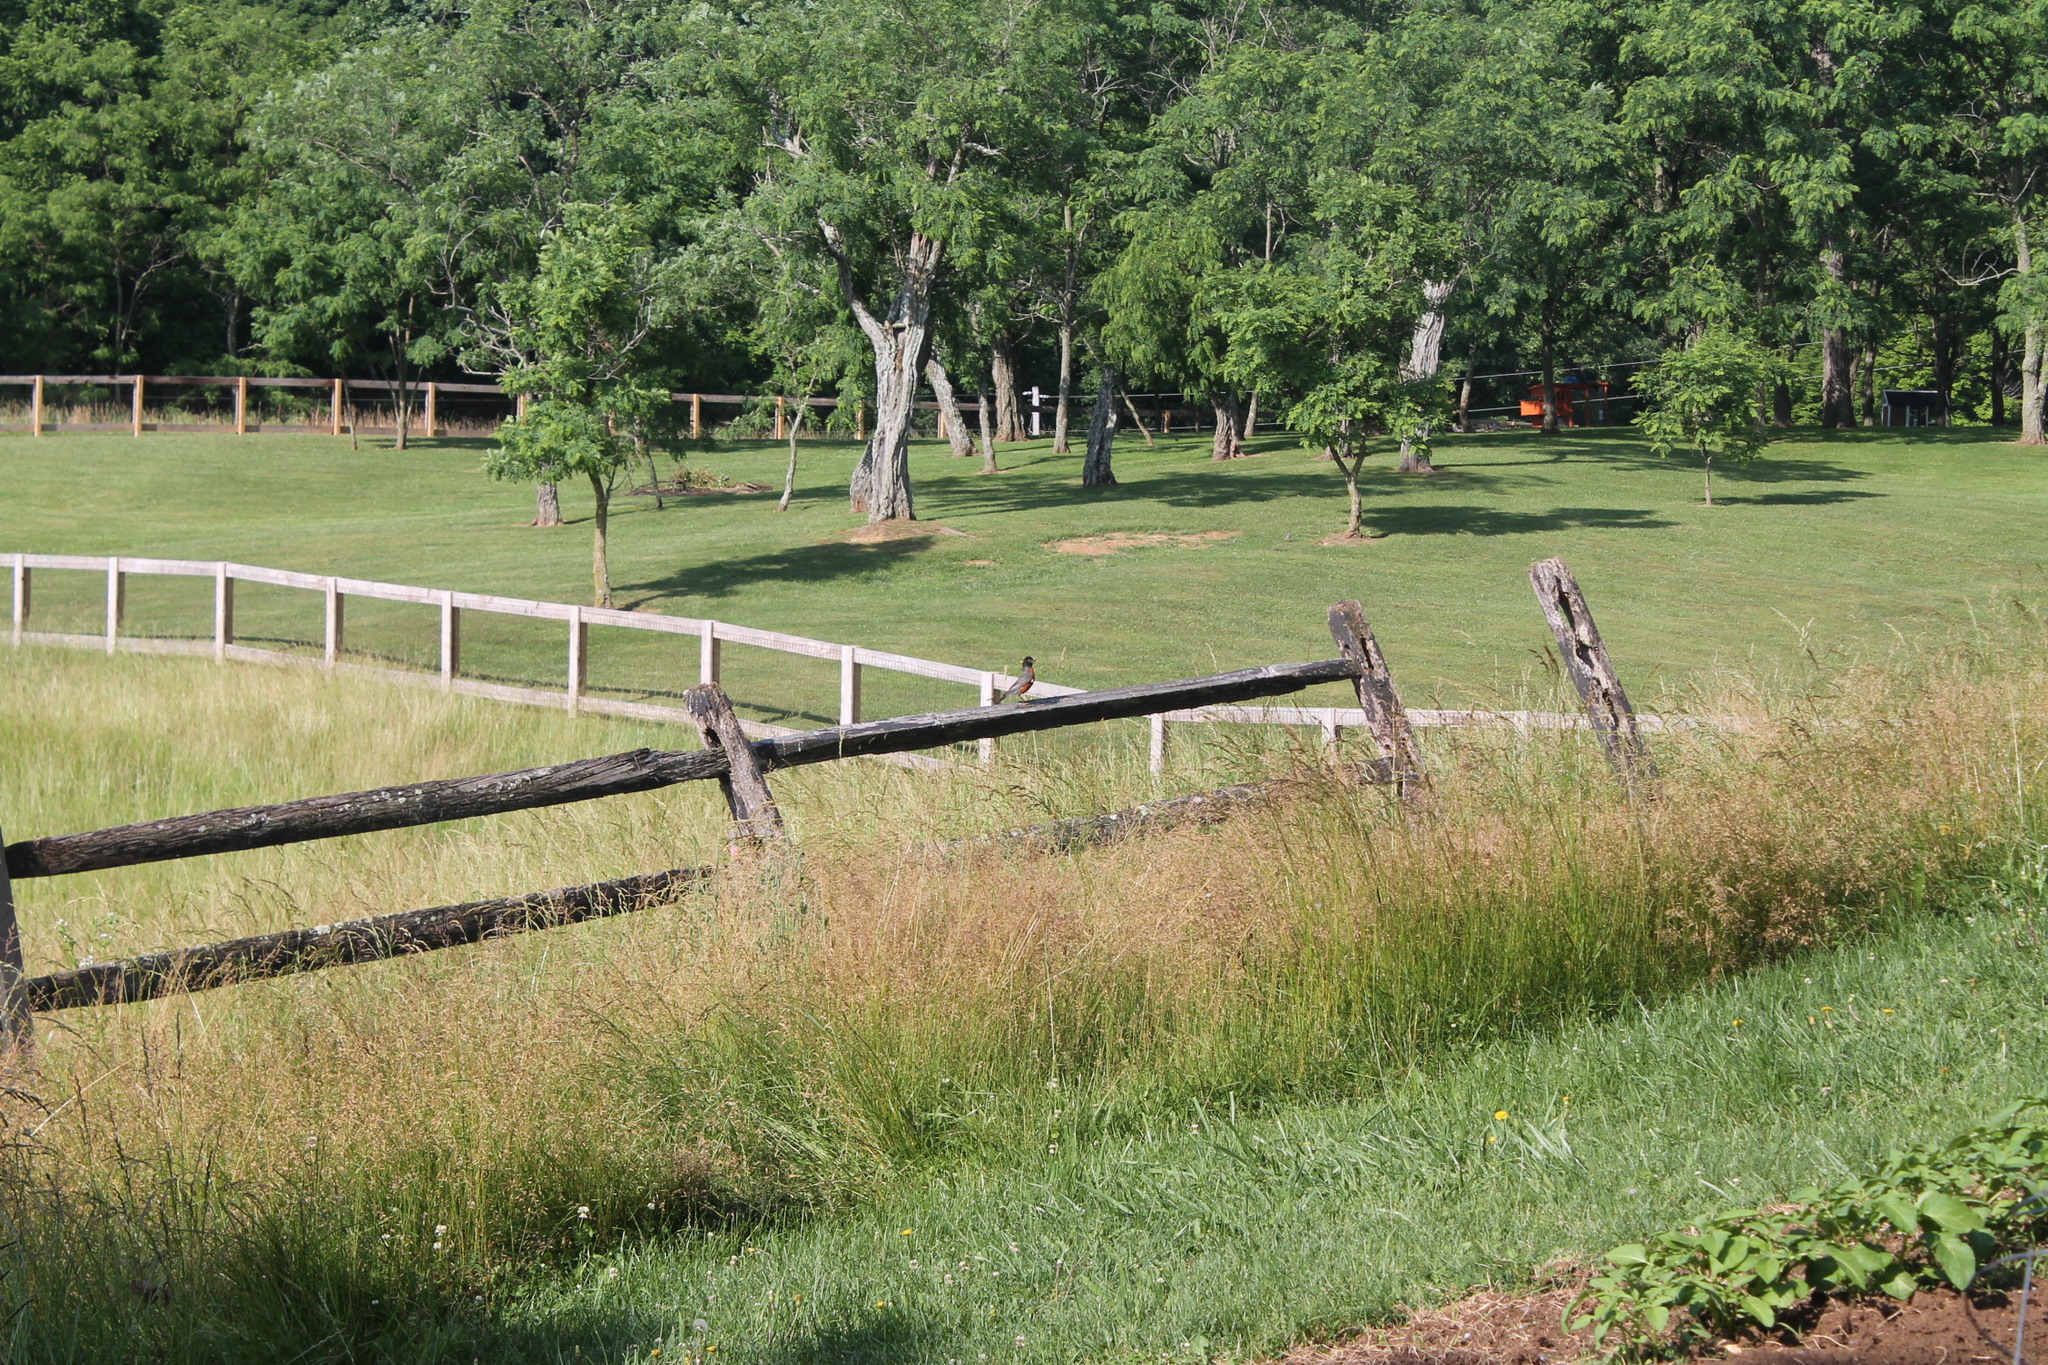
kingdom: Animalia
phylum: Chordata
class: Aves
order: Passeriformes
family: Turdidae
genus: Turdus
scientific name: Turdus migratorius
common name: American robin
